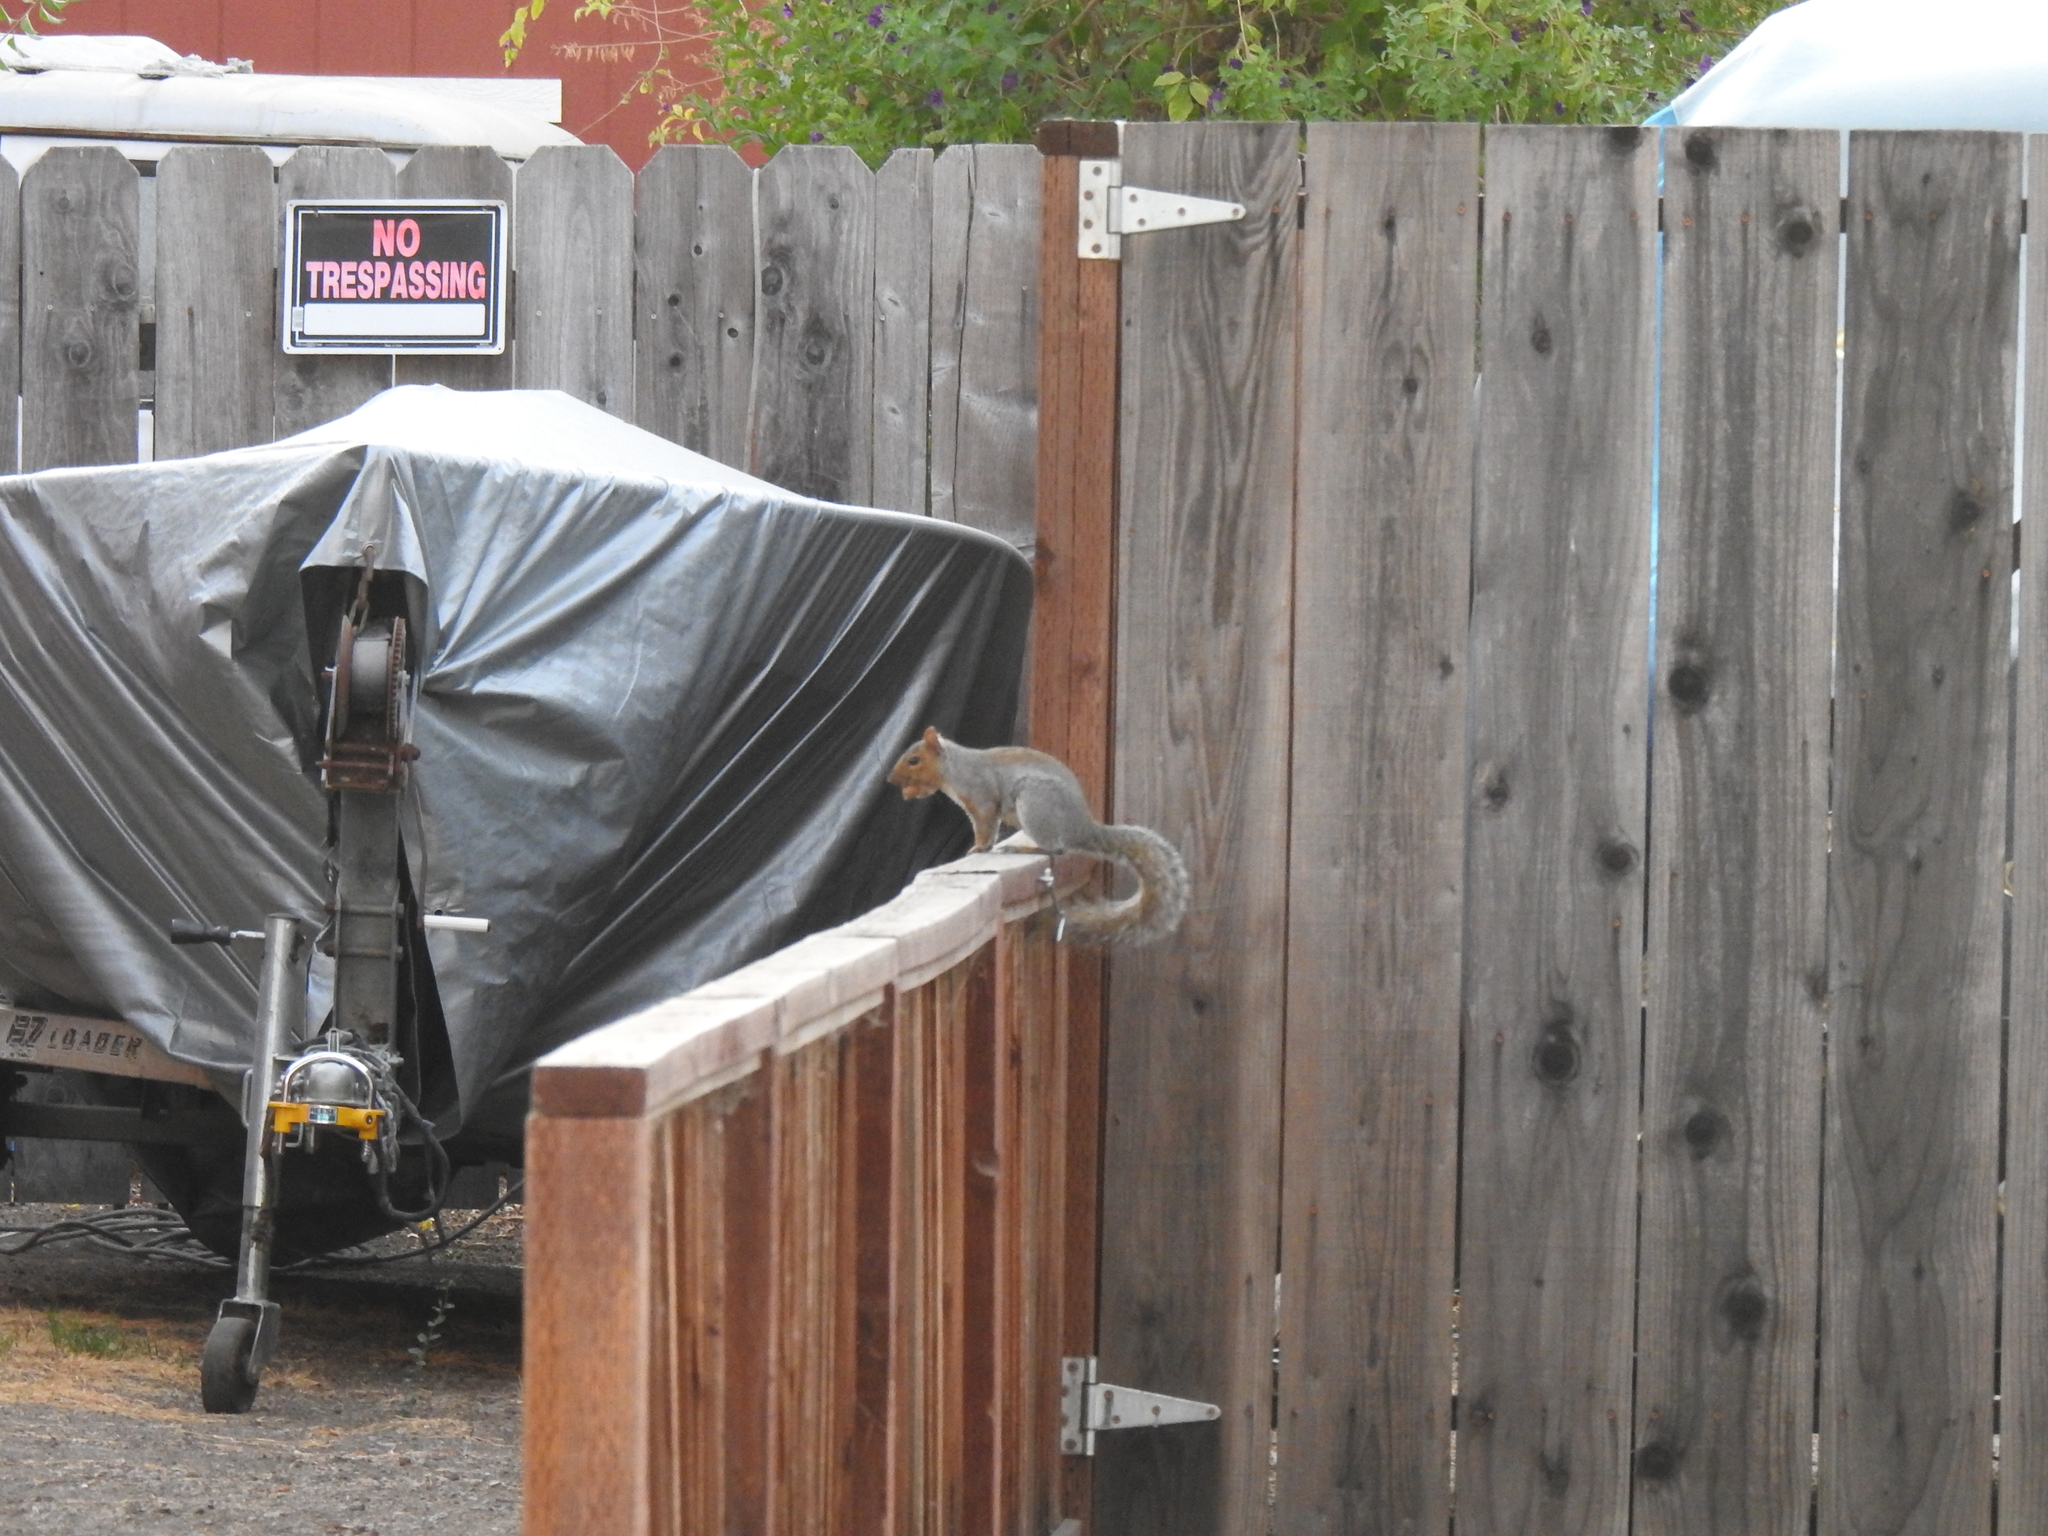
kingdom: Animalia
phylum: Chordata
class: Mammalia
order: Rodentia
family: Sciuridae
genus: Sciurus
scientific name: Sciurus carolinensis
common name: Eastern gray squirrel
